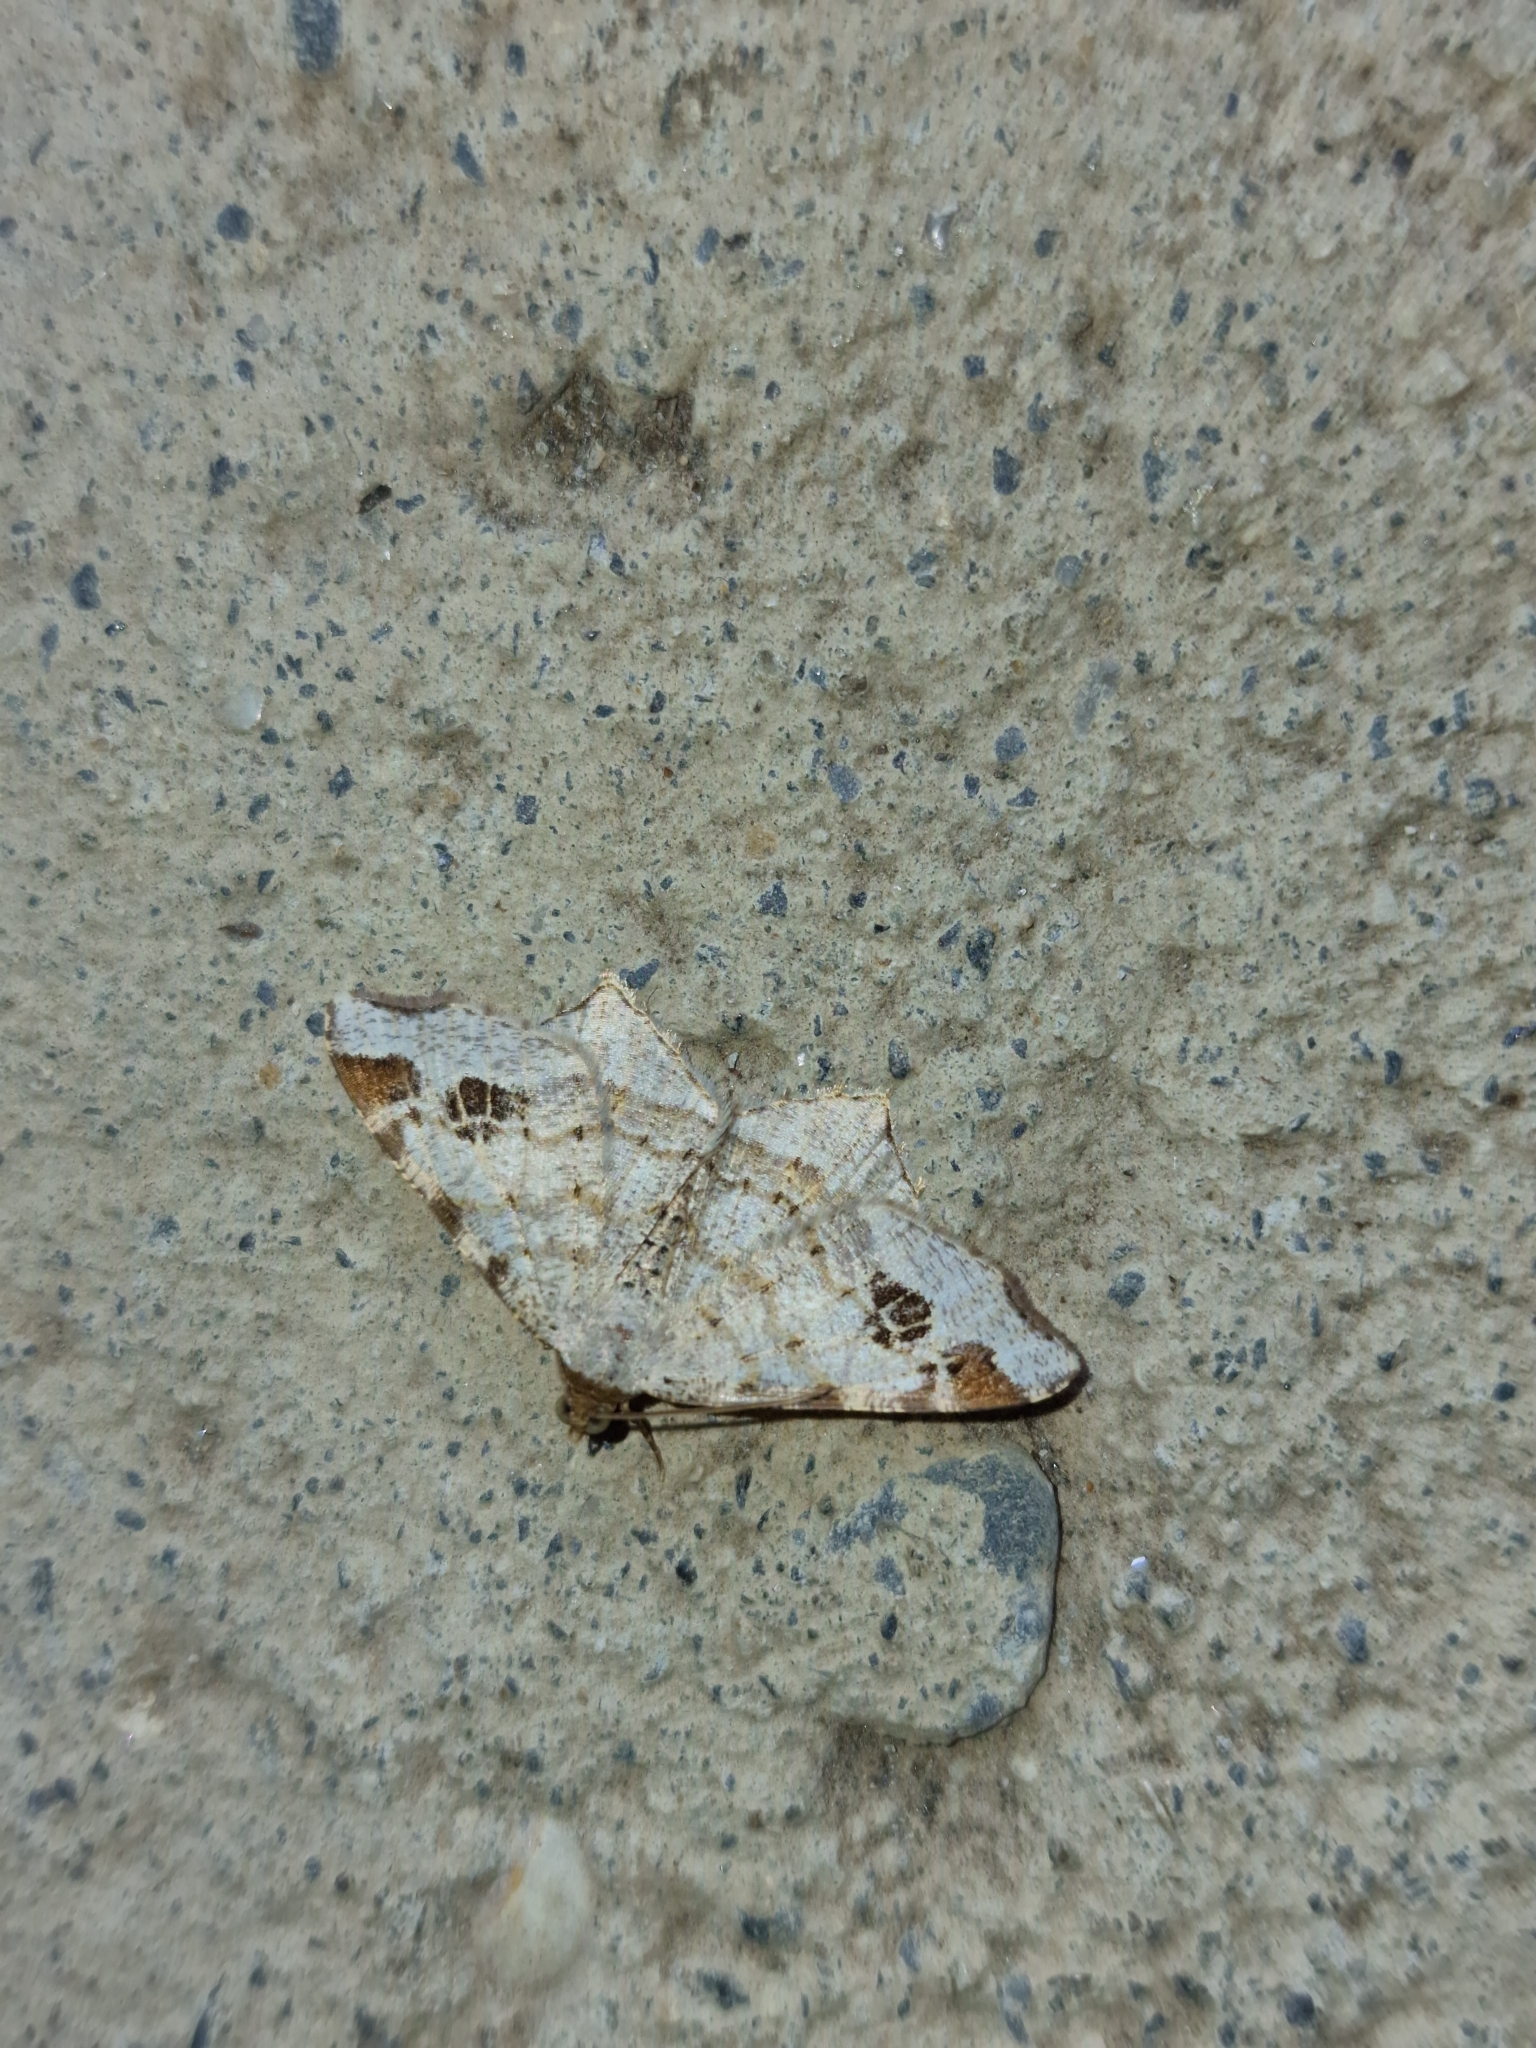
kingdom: Animalia
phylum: Arthropoda
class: Insecta
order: Lepidoptera
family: Geometridae
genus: Macaria
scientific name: Macaria notata
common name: Peacock moth
